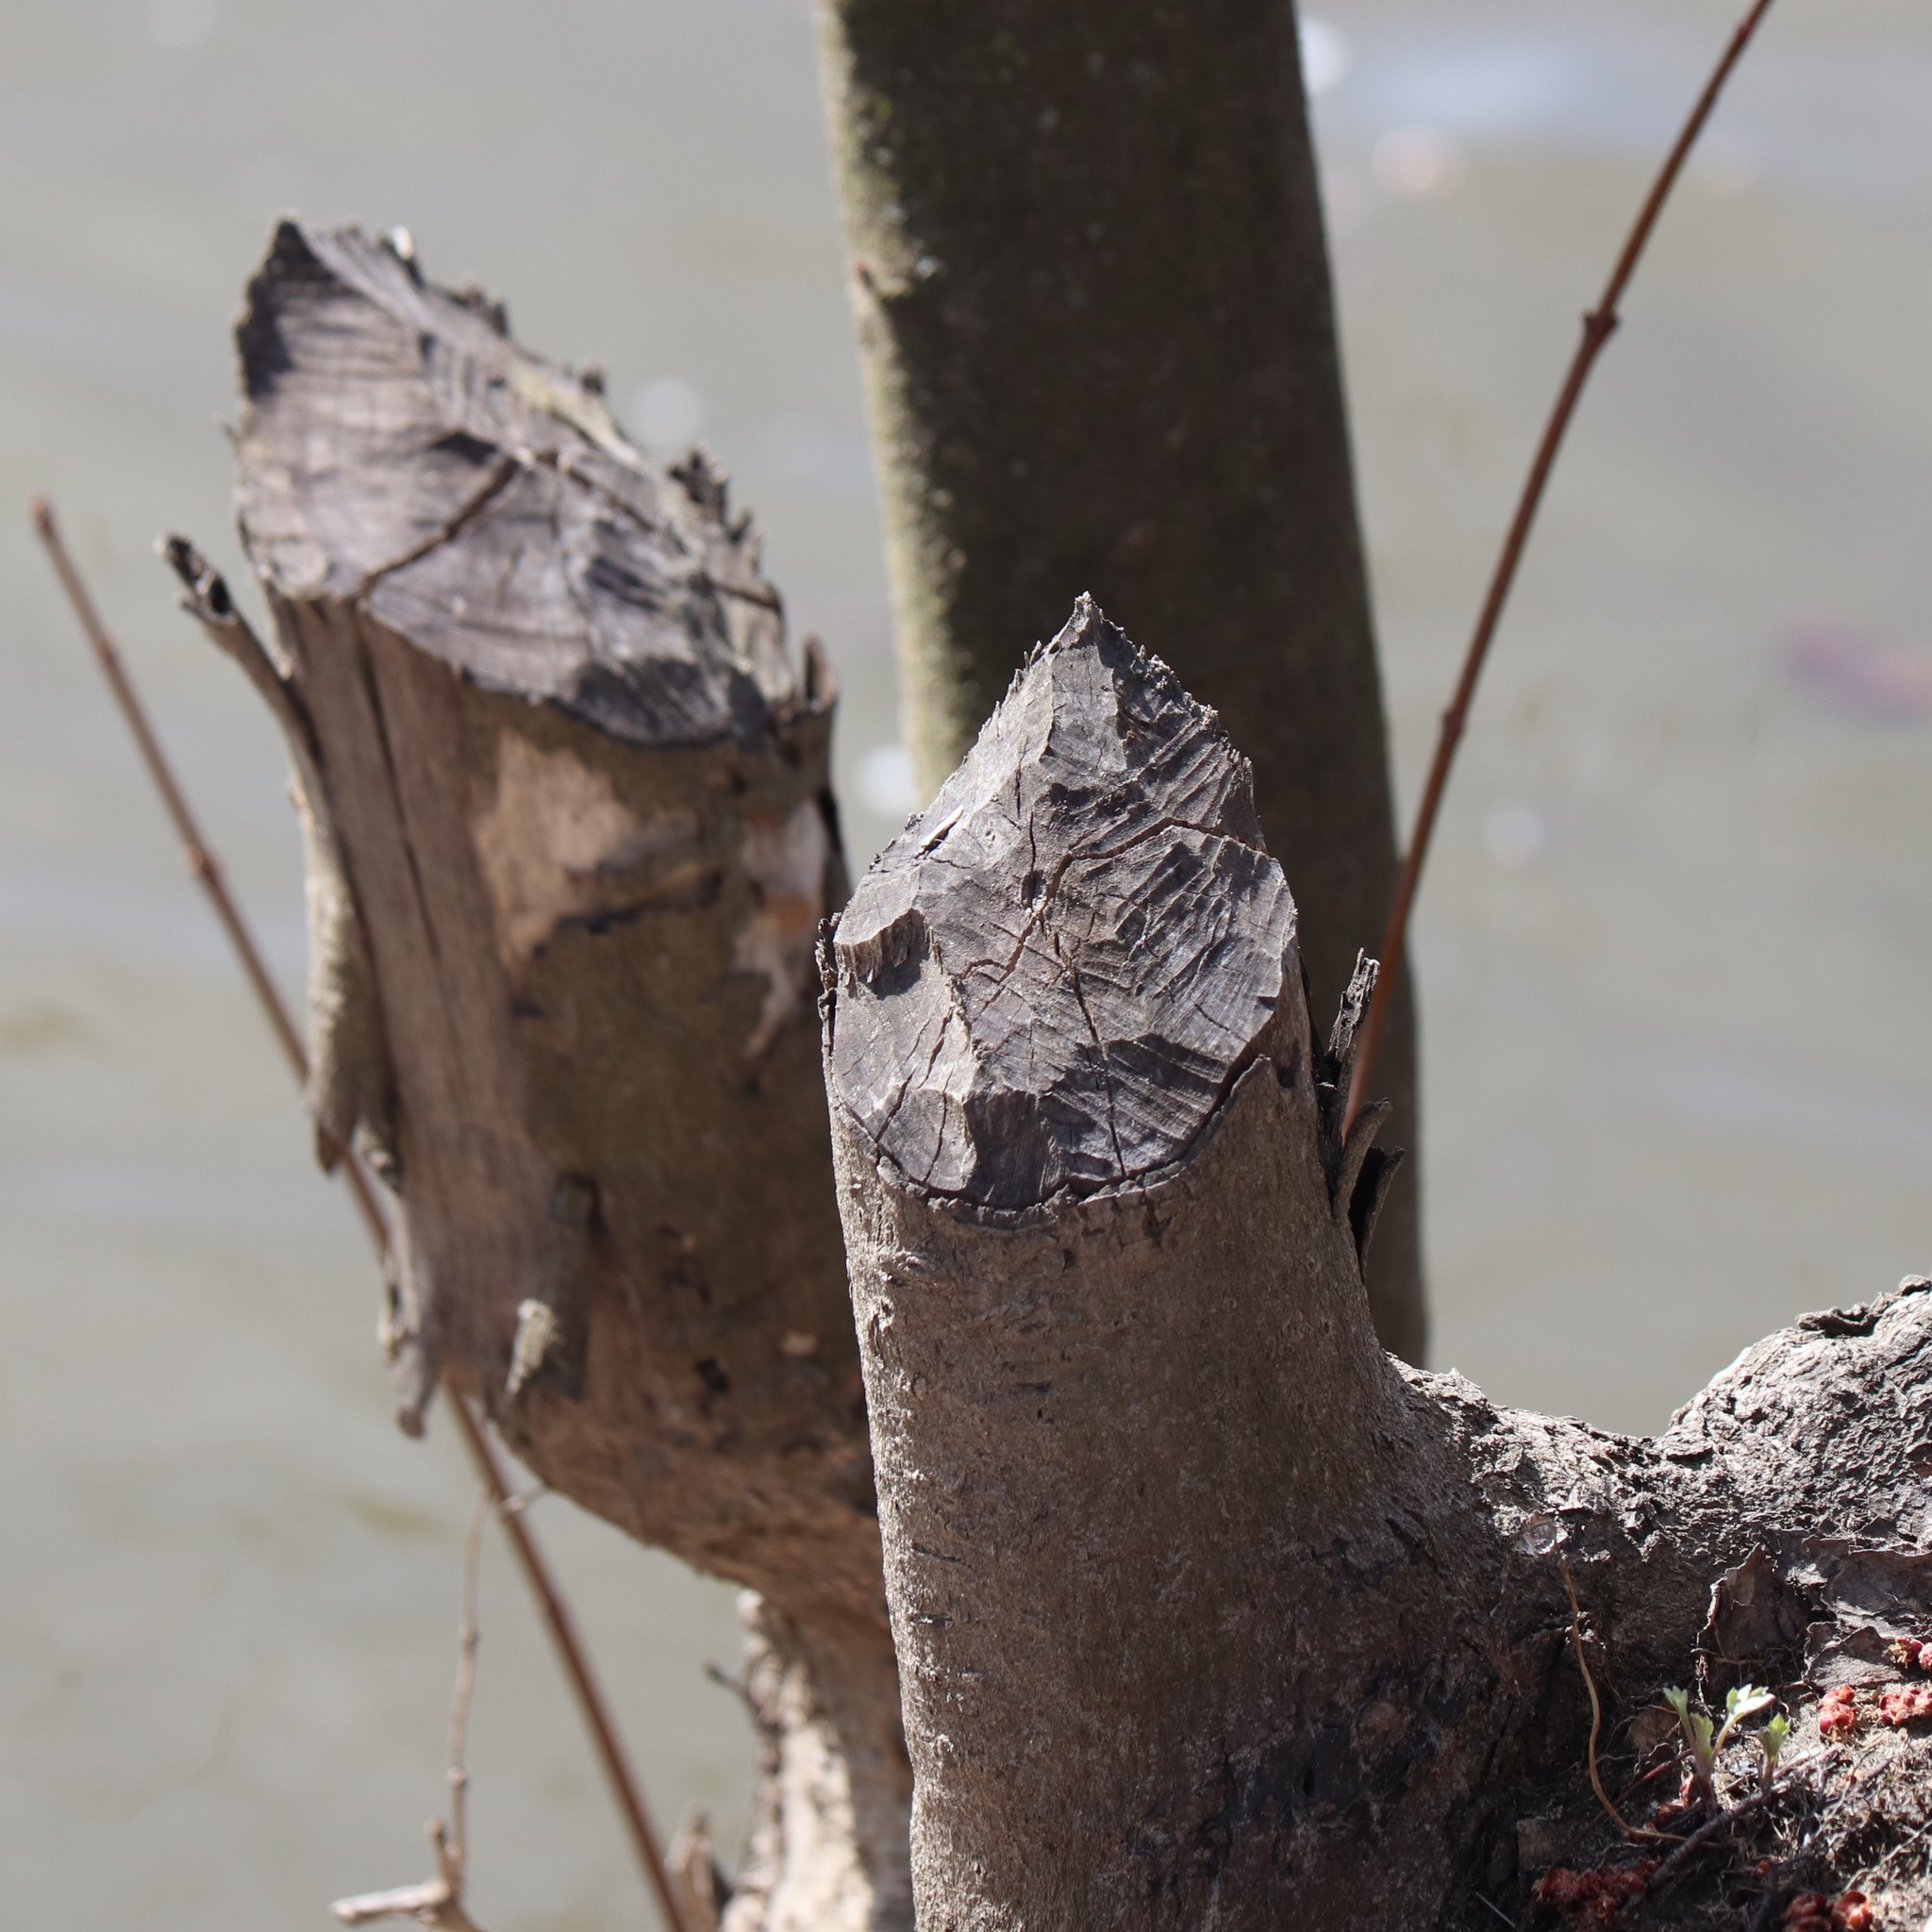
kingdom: Animalia
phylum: Chordata
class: Mammalia
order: Rodentia
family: Castoridae
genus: Castor
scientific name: Castor canadensis
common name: American beaver
